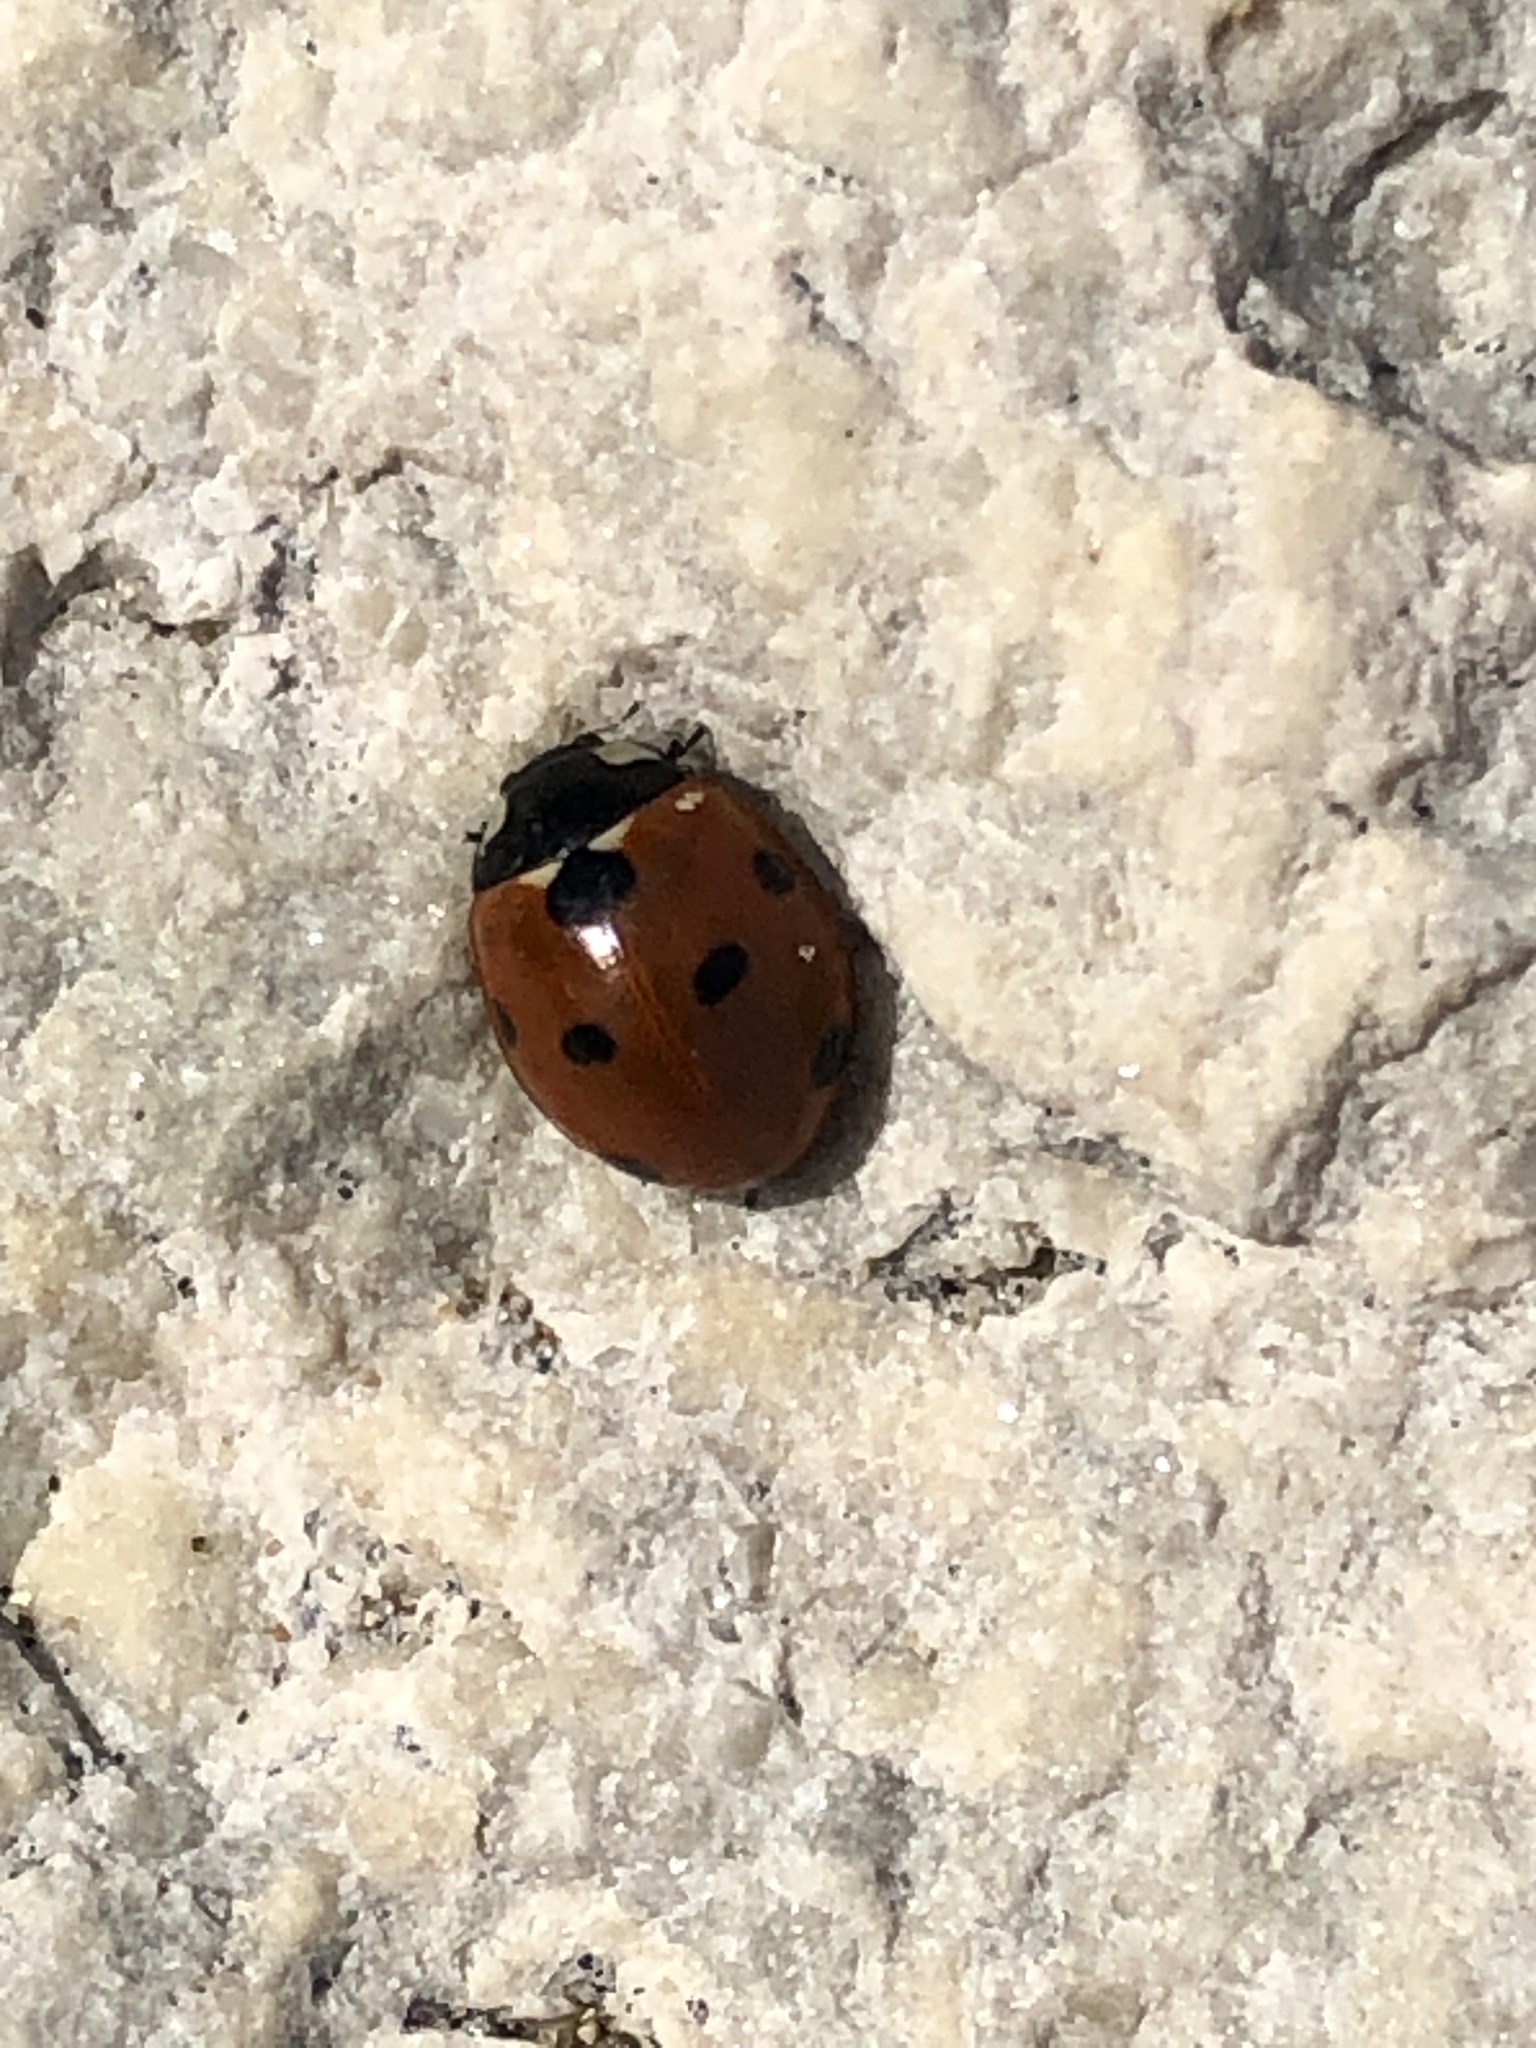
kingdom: Animalia
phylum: Arthropoda
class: Insecta
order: Coleoptera
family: Coccinellidae
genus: Coccinella
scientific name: Coccinella septempunctata
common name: Sevenspotted lady beetle
